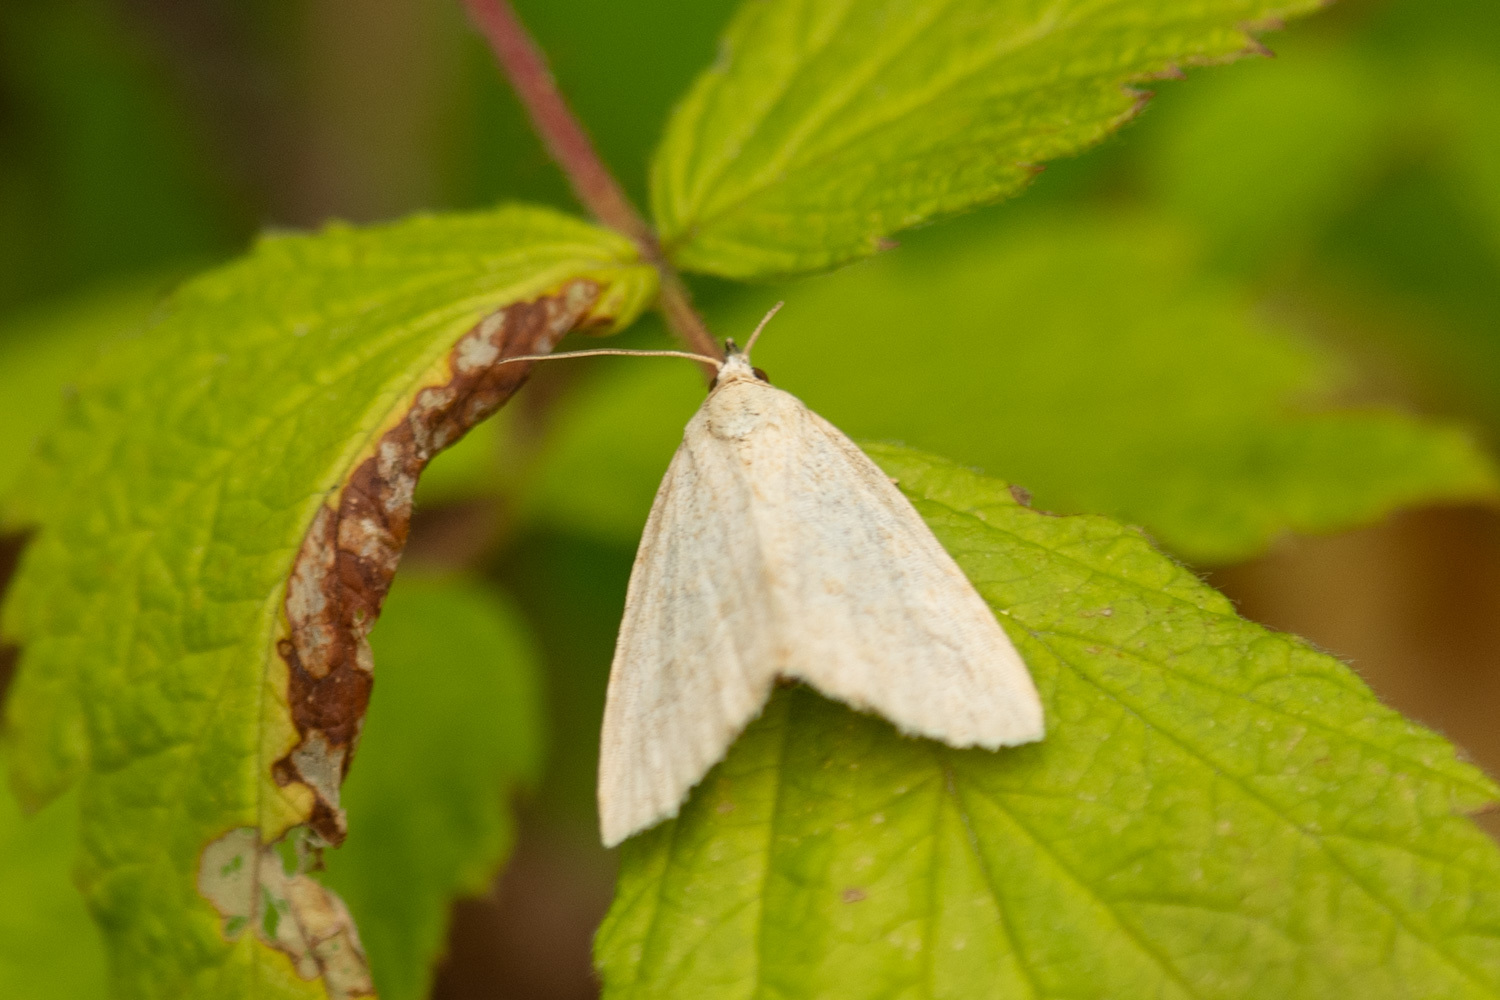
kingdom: Animalia
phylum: Arthropoda
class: Insecta
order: Lepidoptera
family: Noctuidae
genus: Protodeltote
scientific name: Protodeltote albidula
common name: Pale glyph
